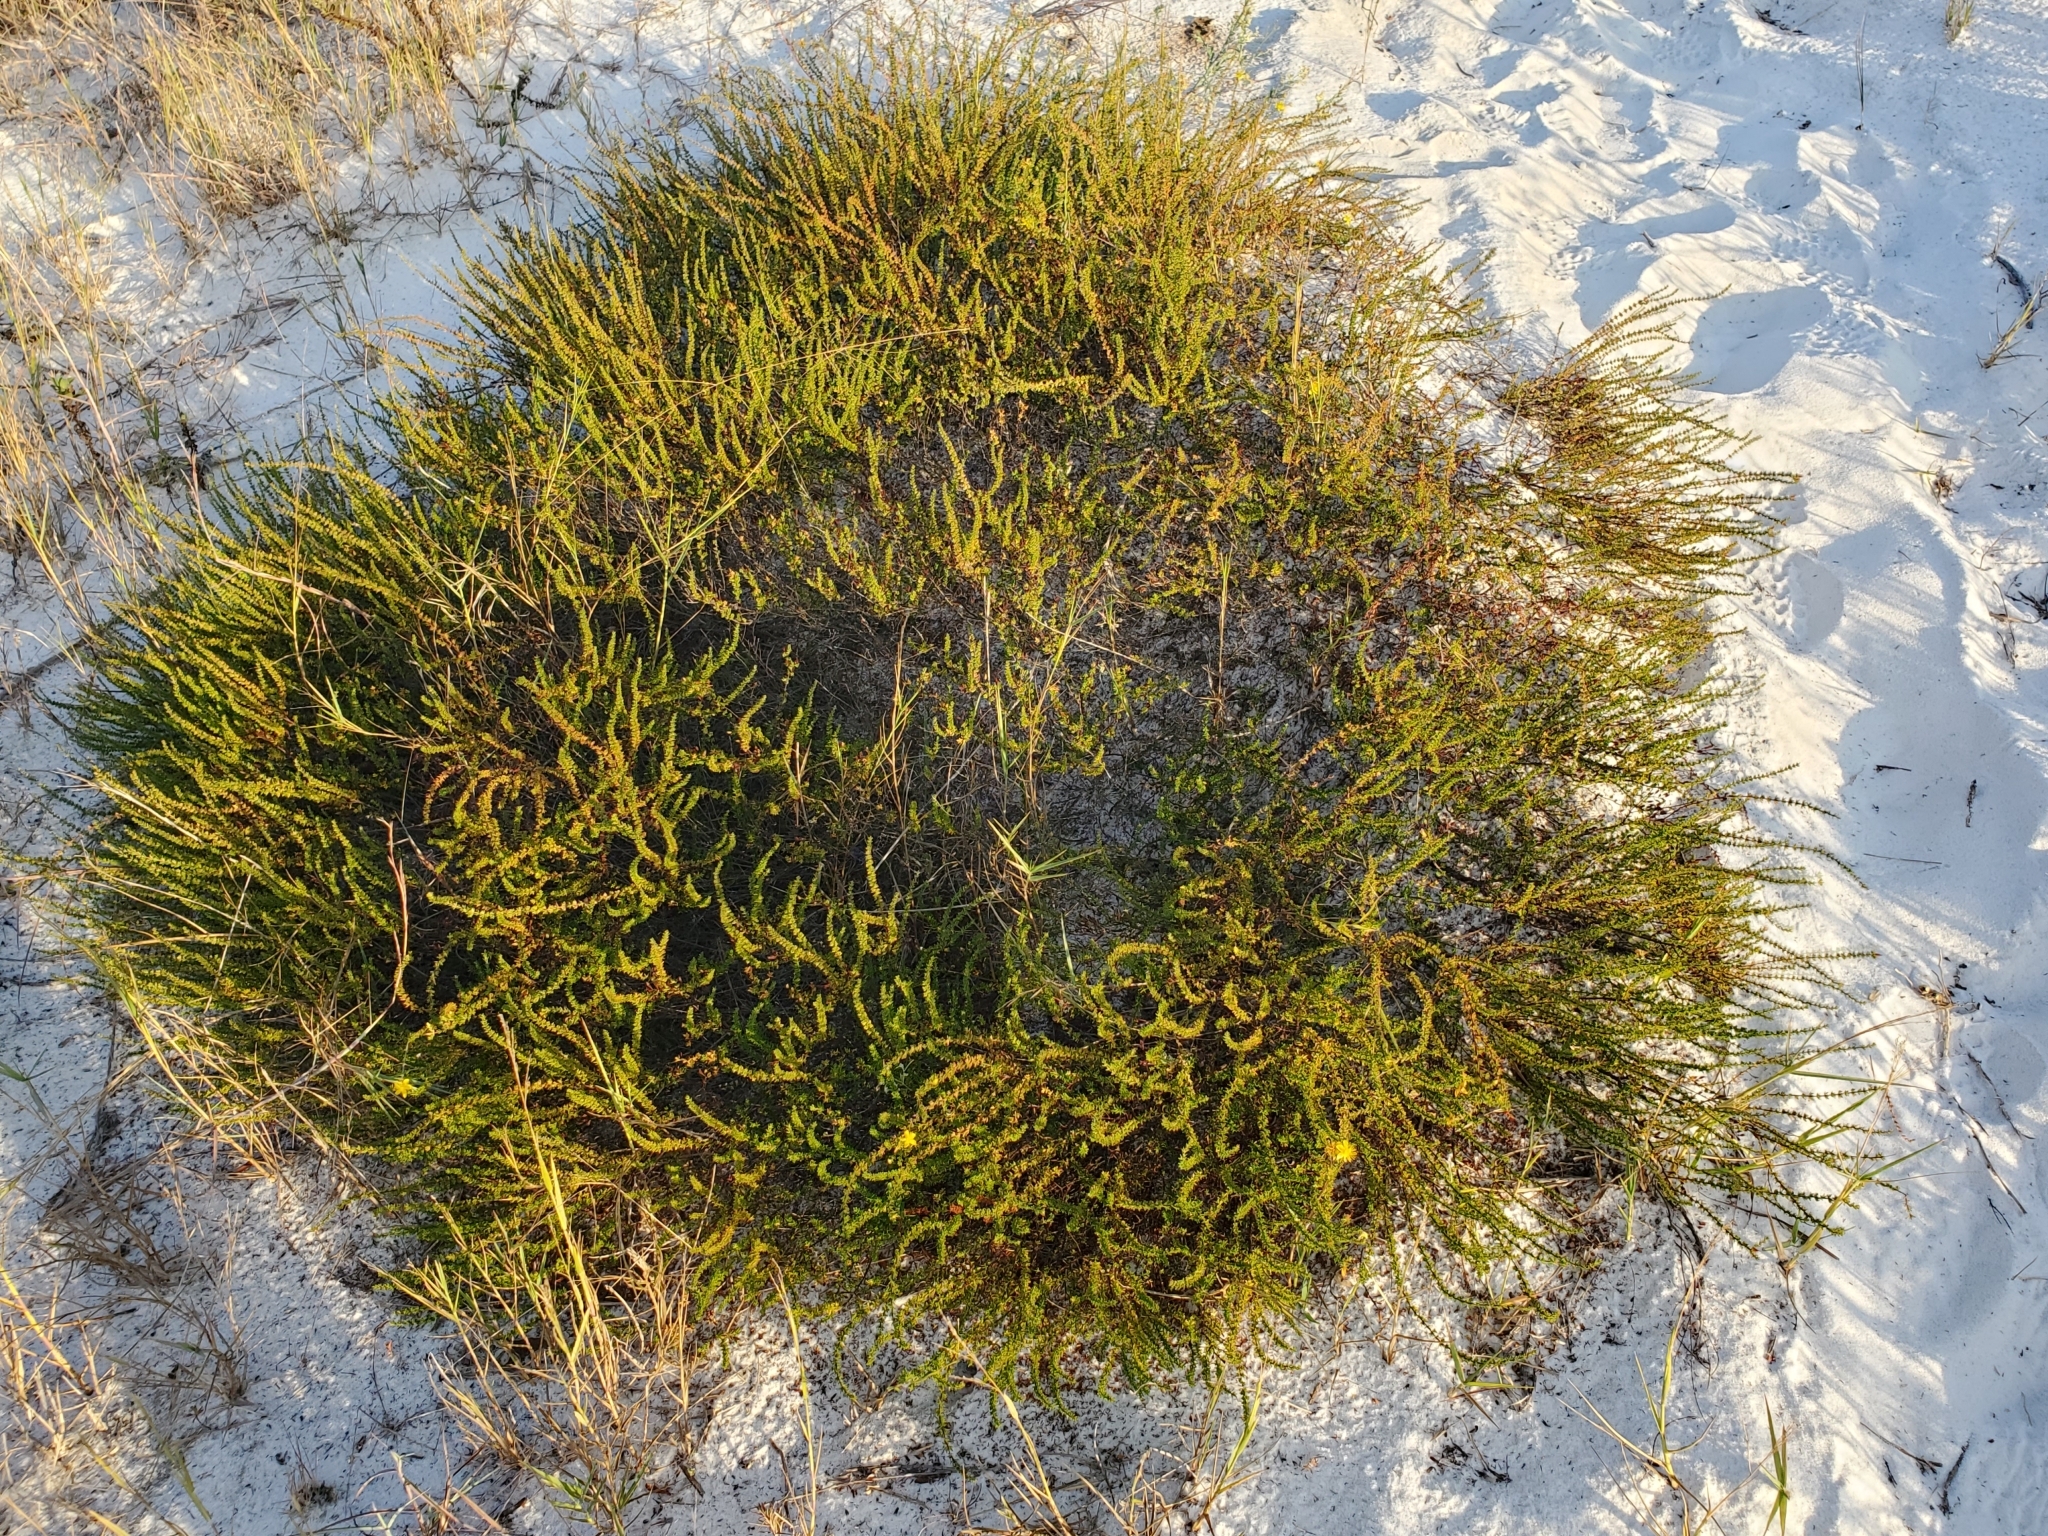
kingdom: Plantae
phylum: Tracheophyta
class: Magnoliopsida
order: Malpighiales
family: Hypericaceae
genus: Hypericum
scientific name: Hypericum tenuifolium
